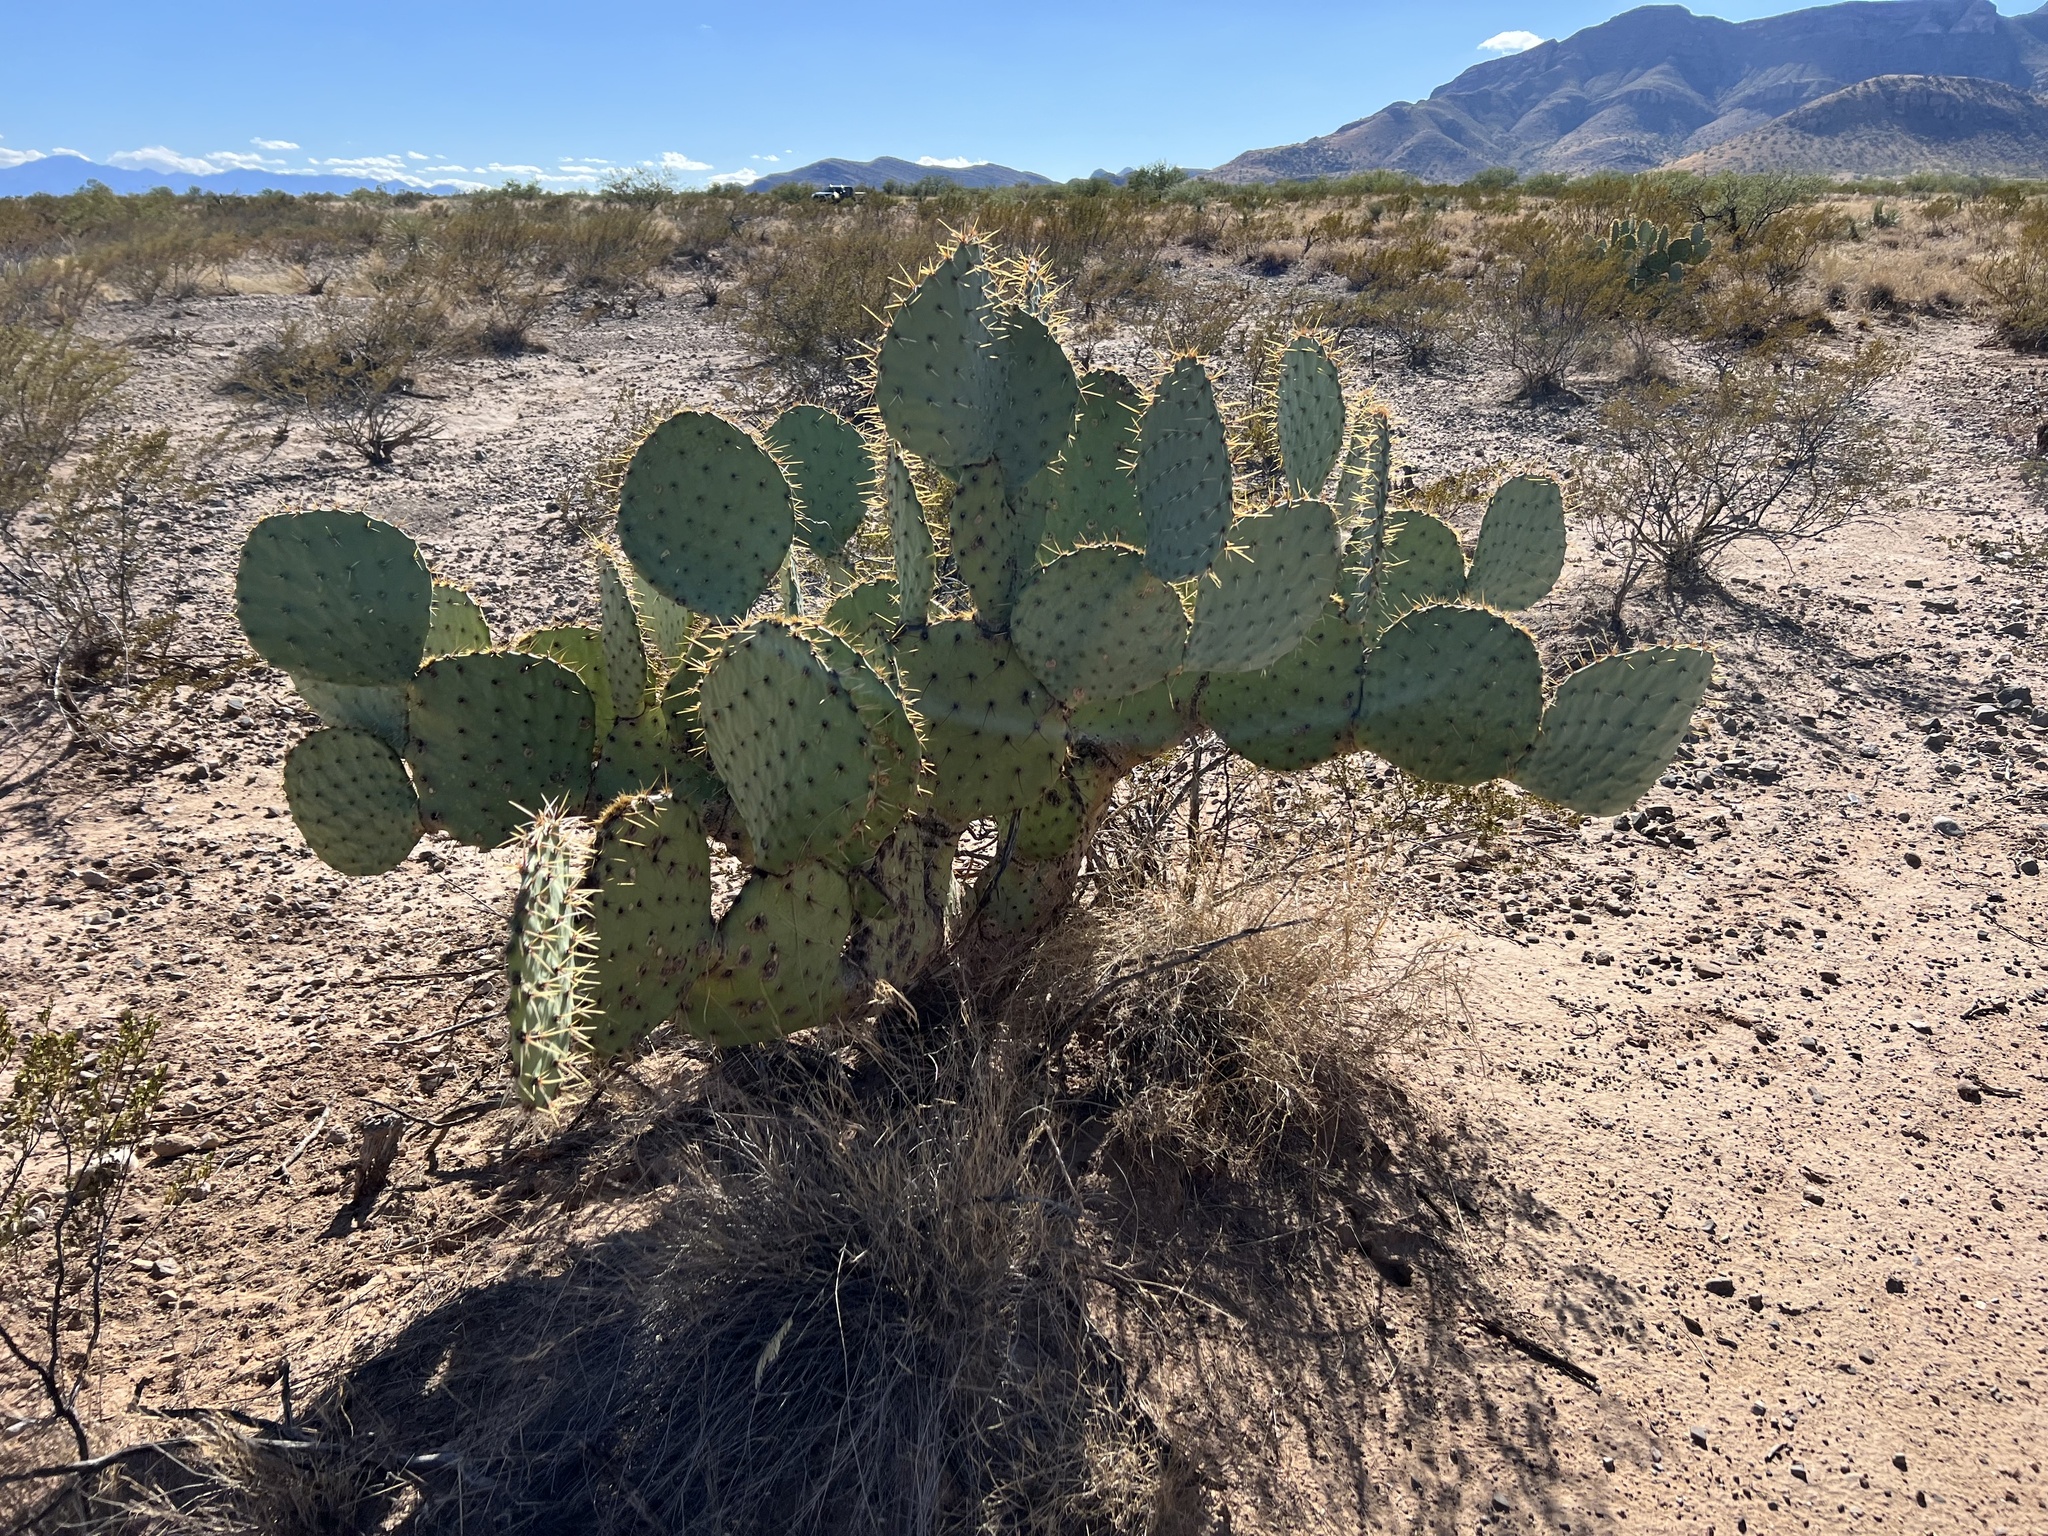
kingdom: Plantae
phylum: Tracheophyta
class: Magnoliopsida
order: Caryophyllales
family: Cactaceae
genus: Opuntia
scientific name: Opuntia engelmannii
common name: Cactus-apple
